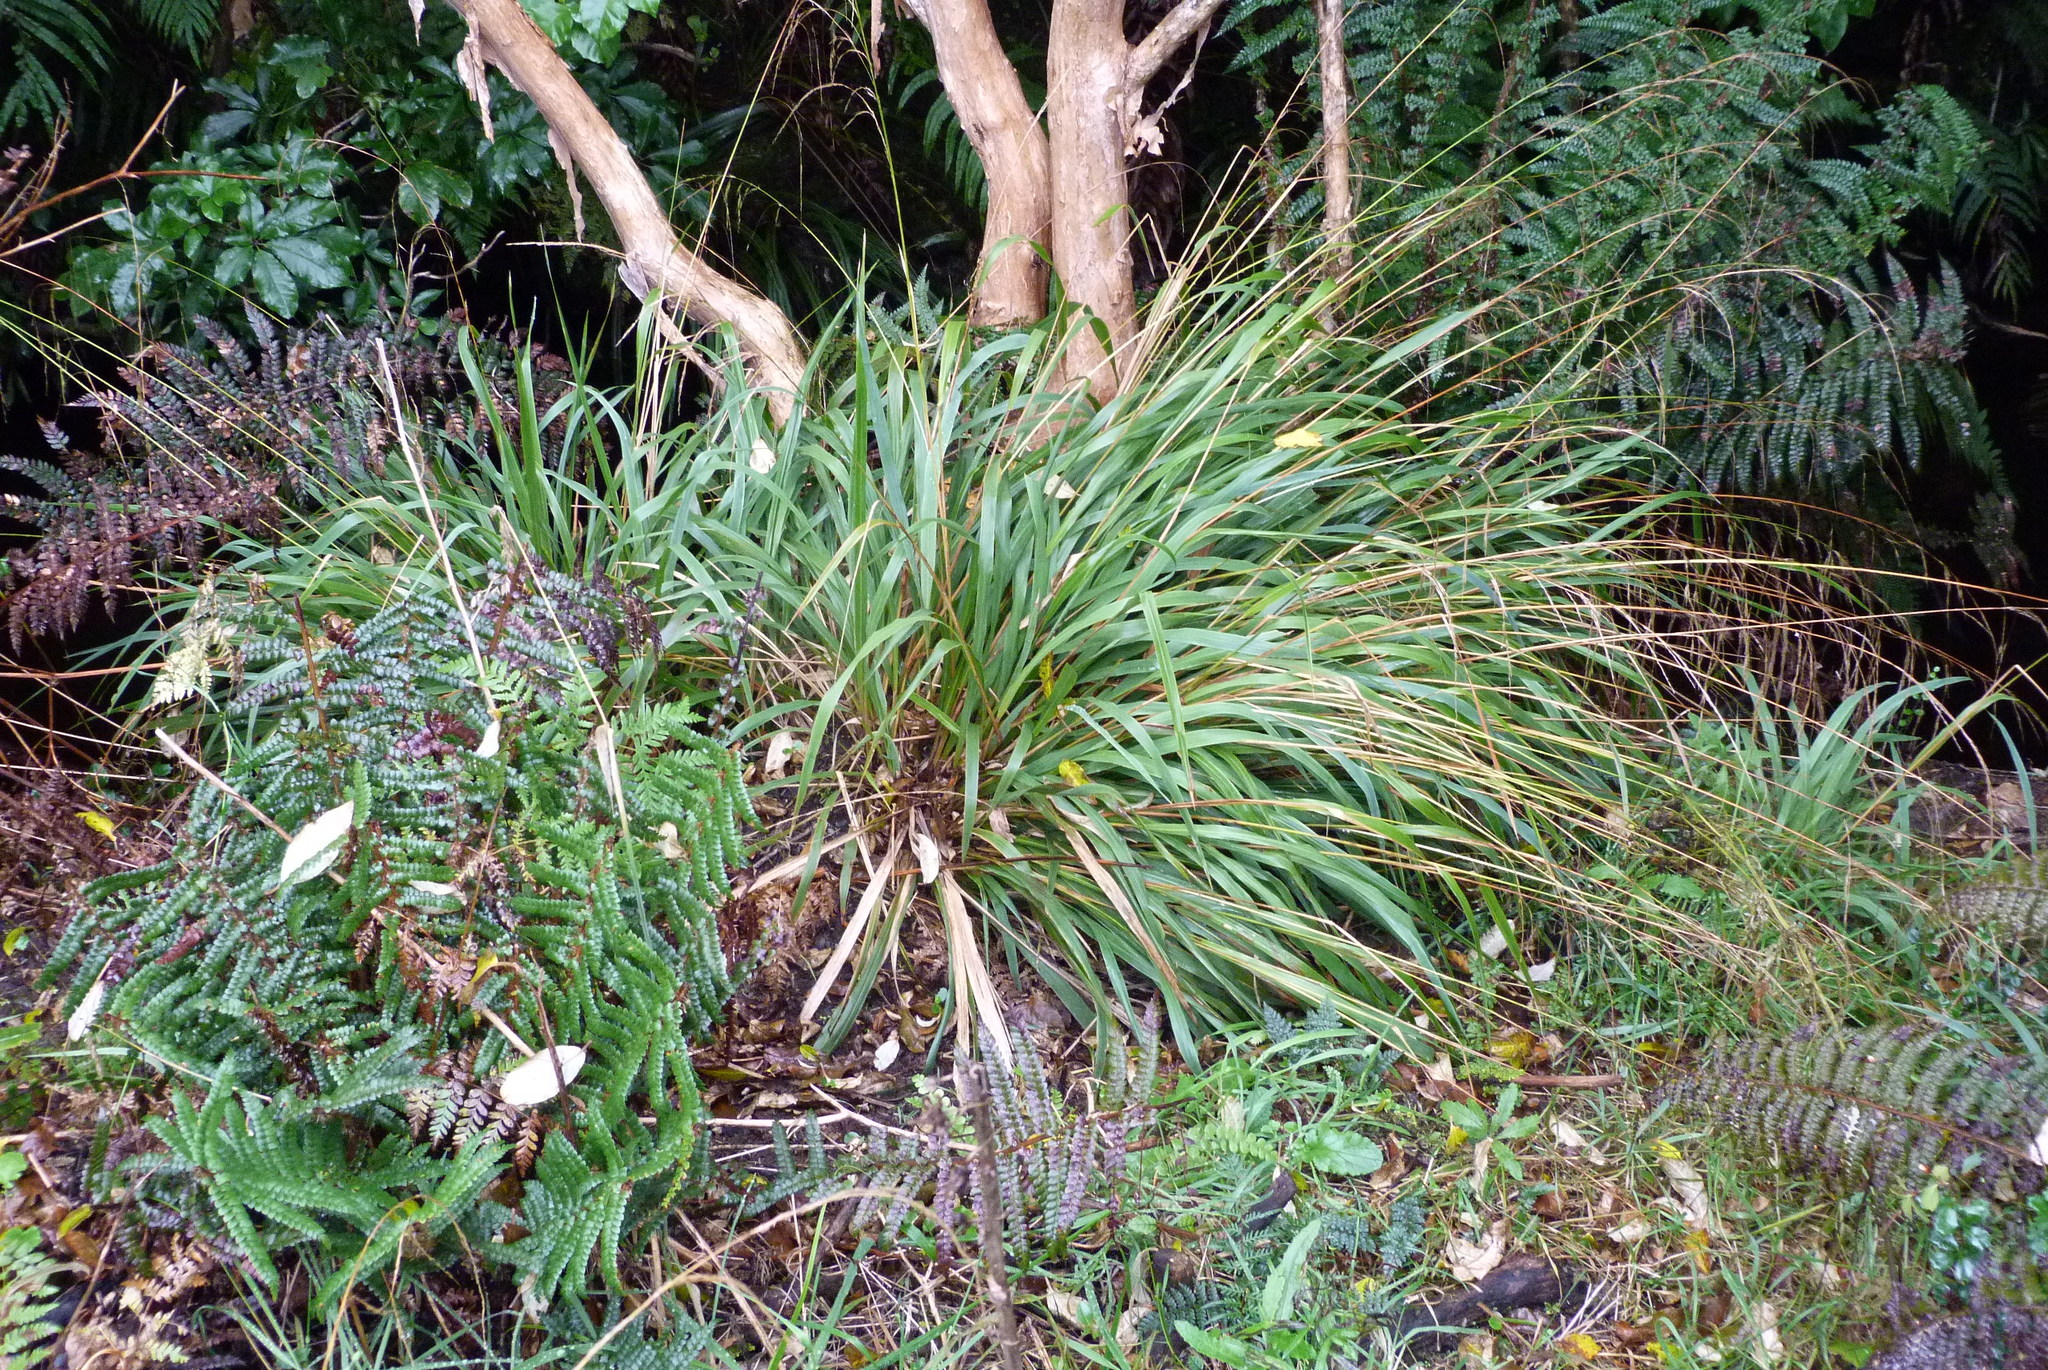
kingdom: Plantae
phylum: Tracheophyta
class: Liliopsida
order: Poales
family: Poaceae
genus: Ehrharta
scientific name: Ehrharta diplax
